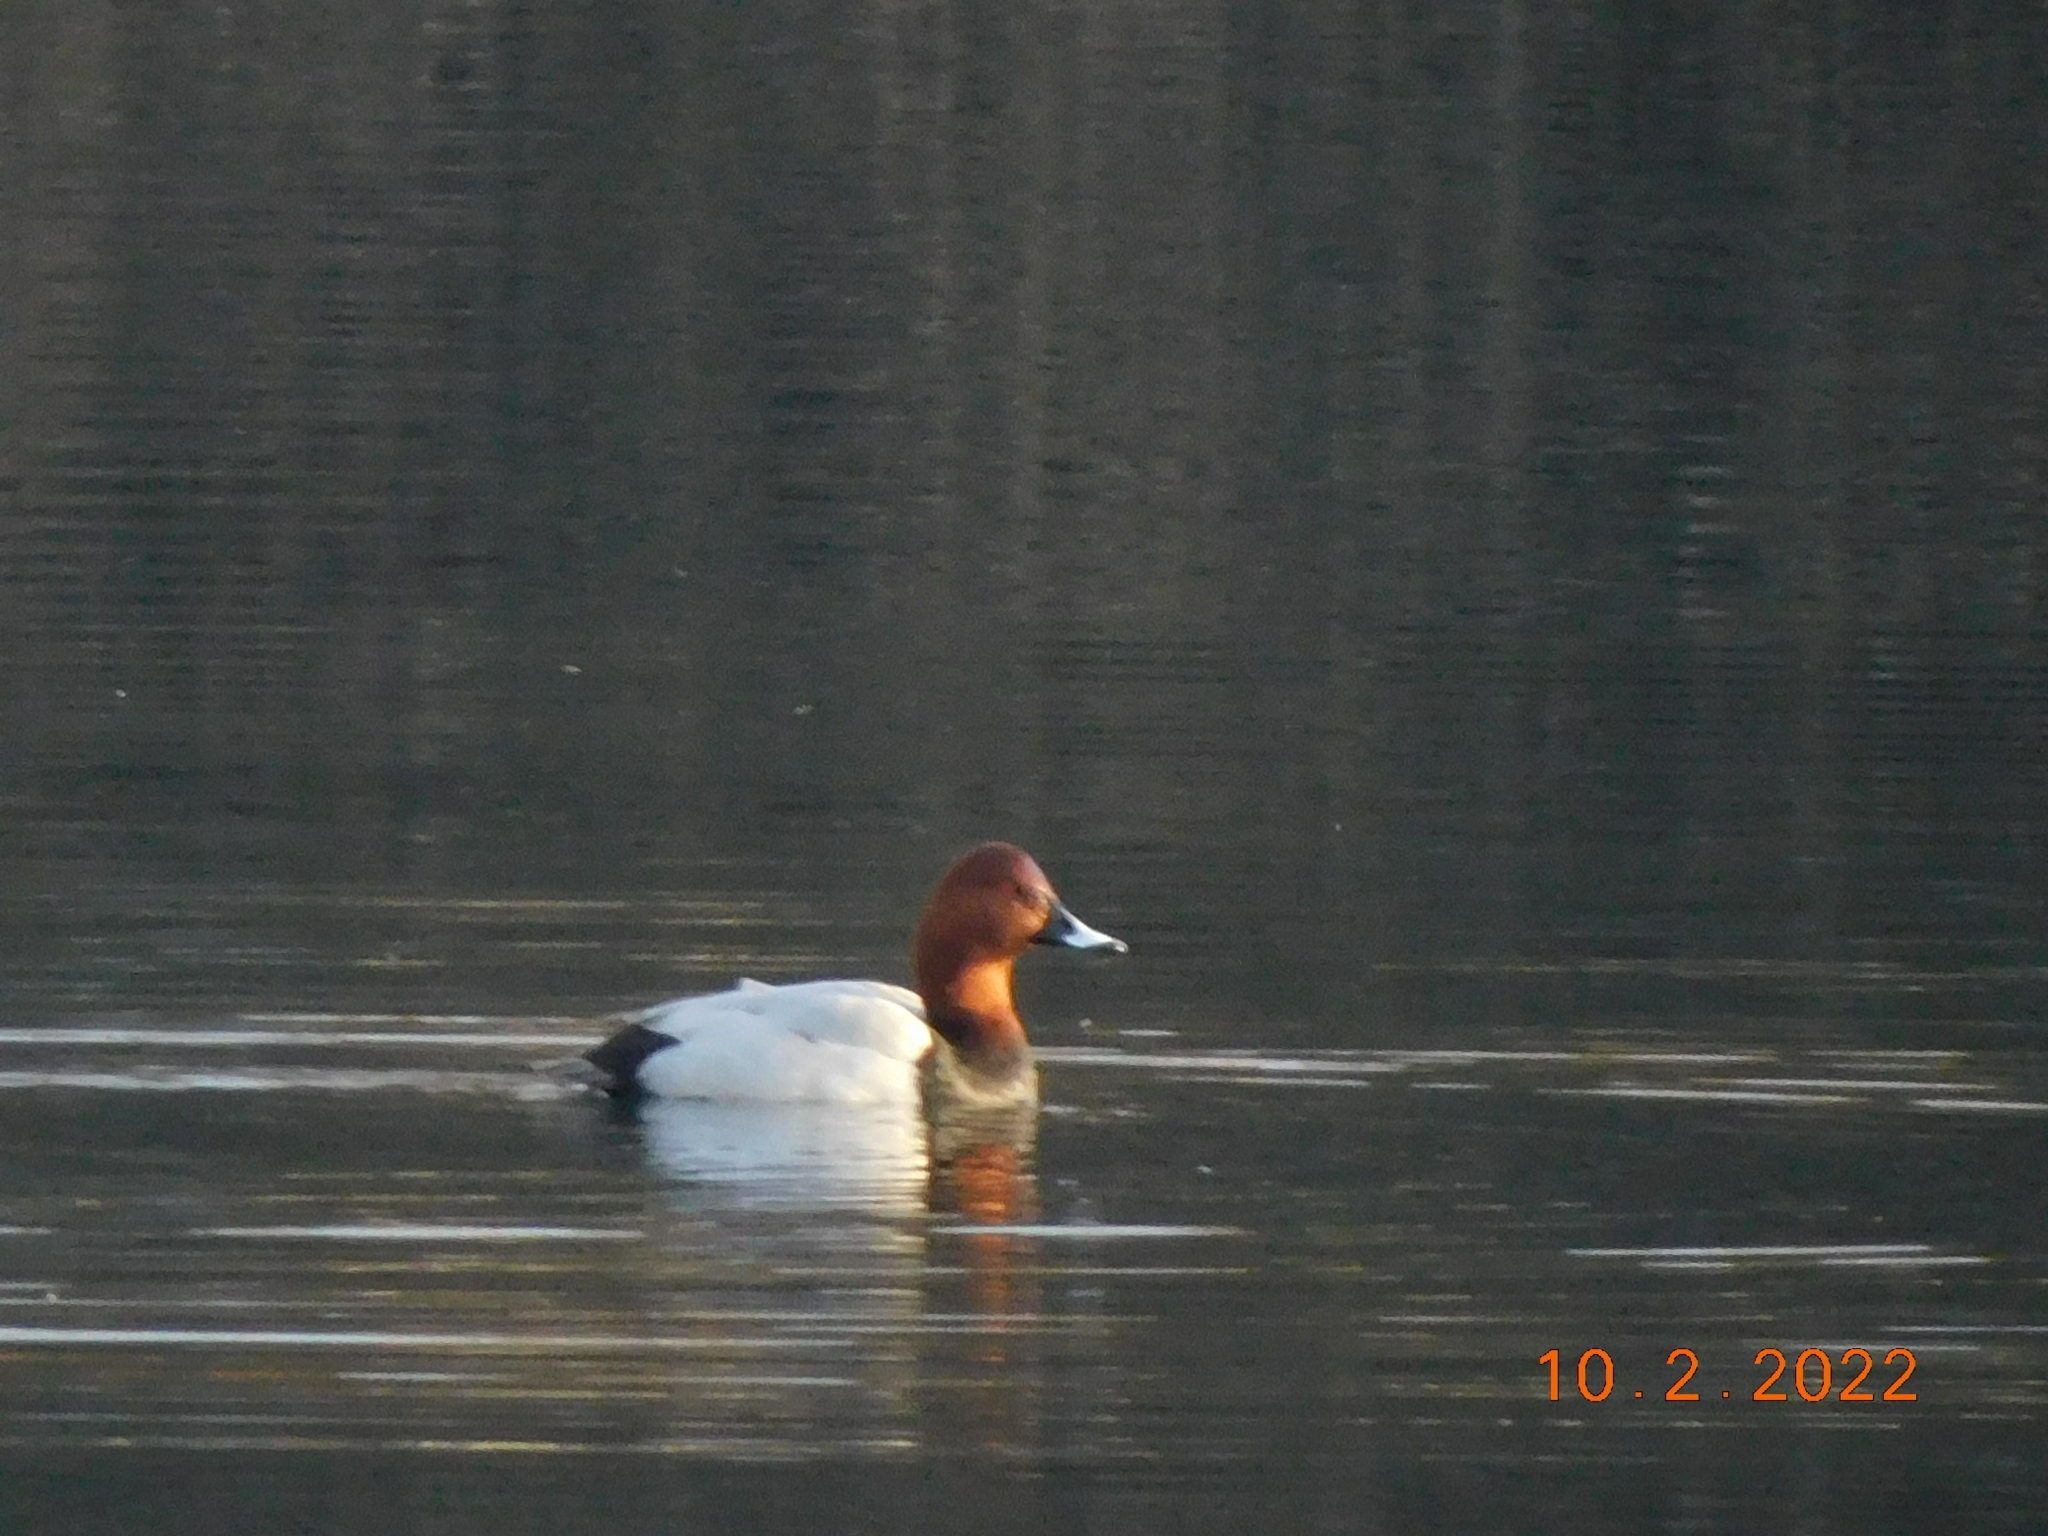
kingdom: Animalia
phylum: Chordata
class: Aves
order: Anseriformes
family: Anatidae
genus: Aythya
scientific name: Aythya ferina
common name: Common pochard
